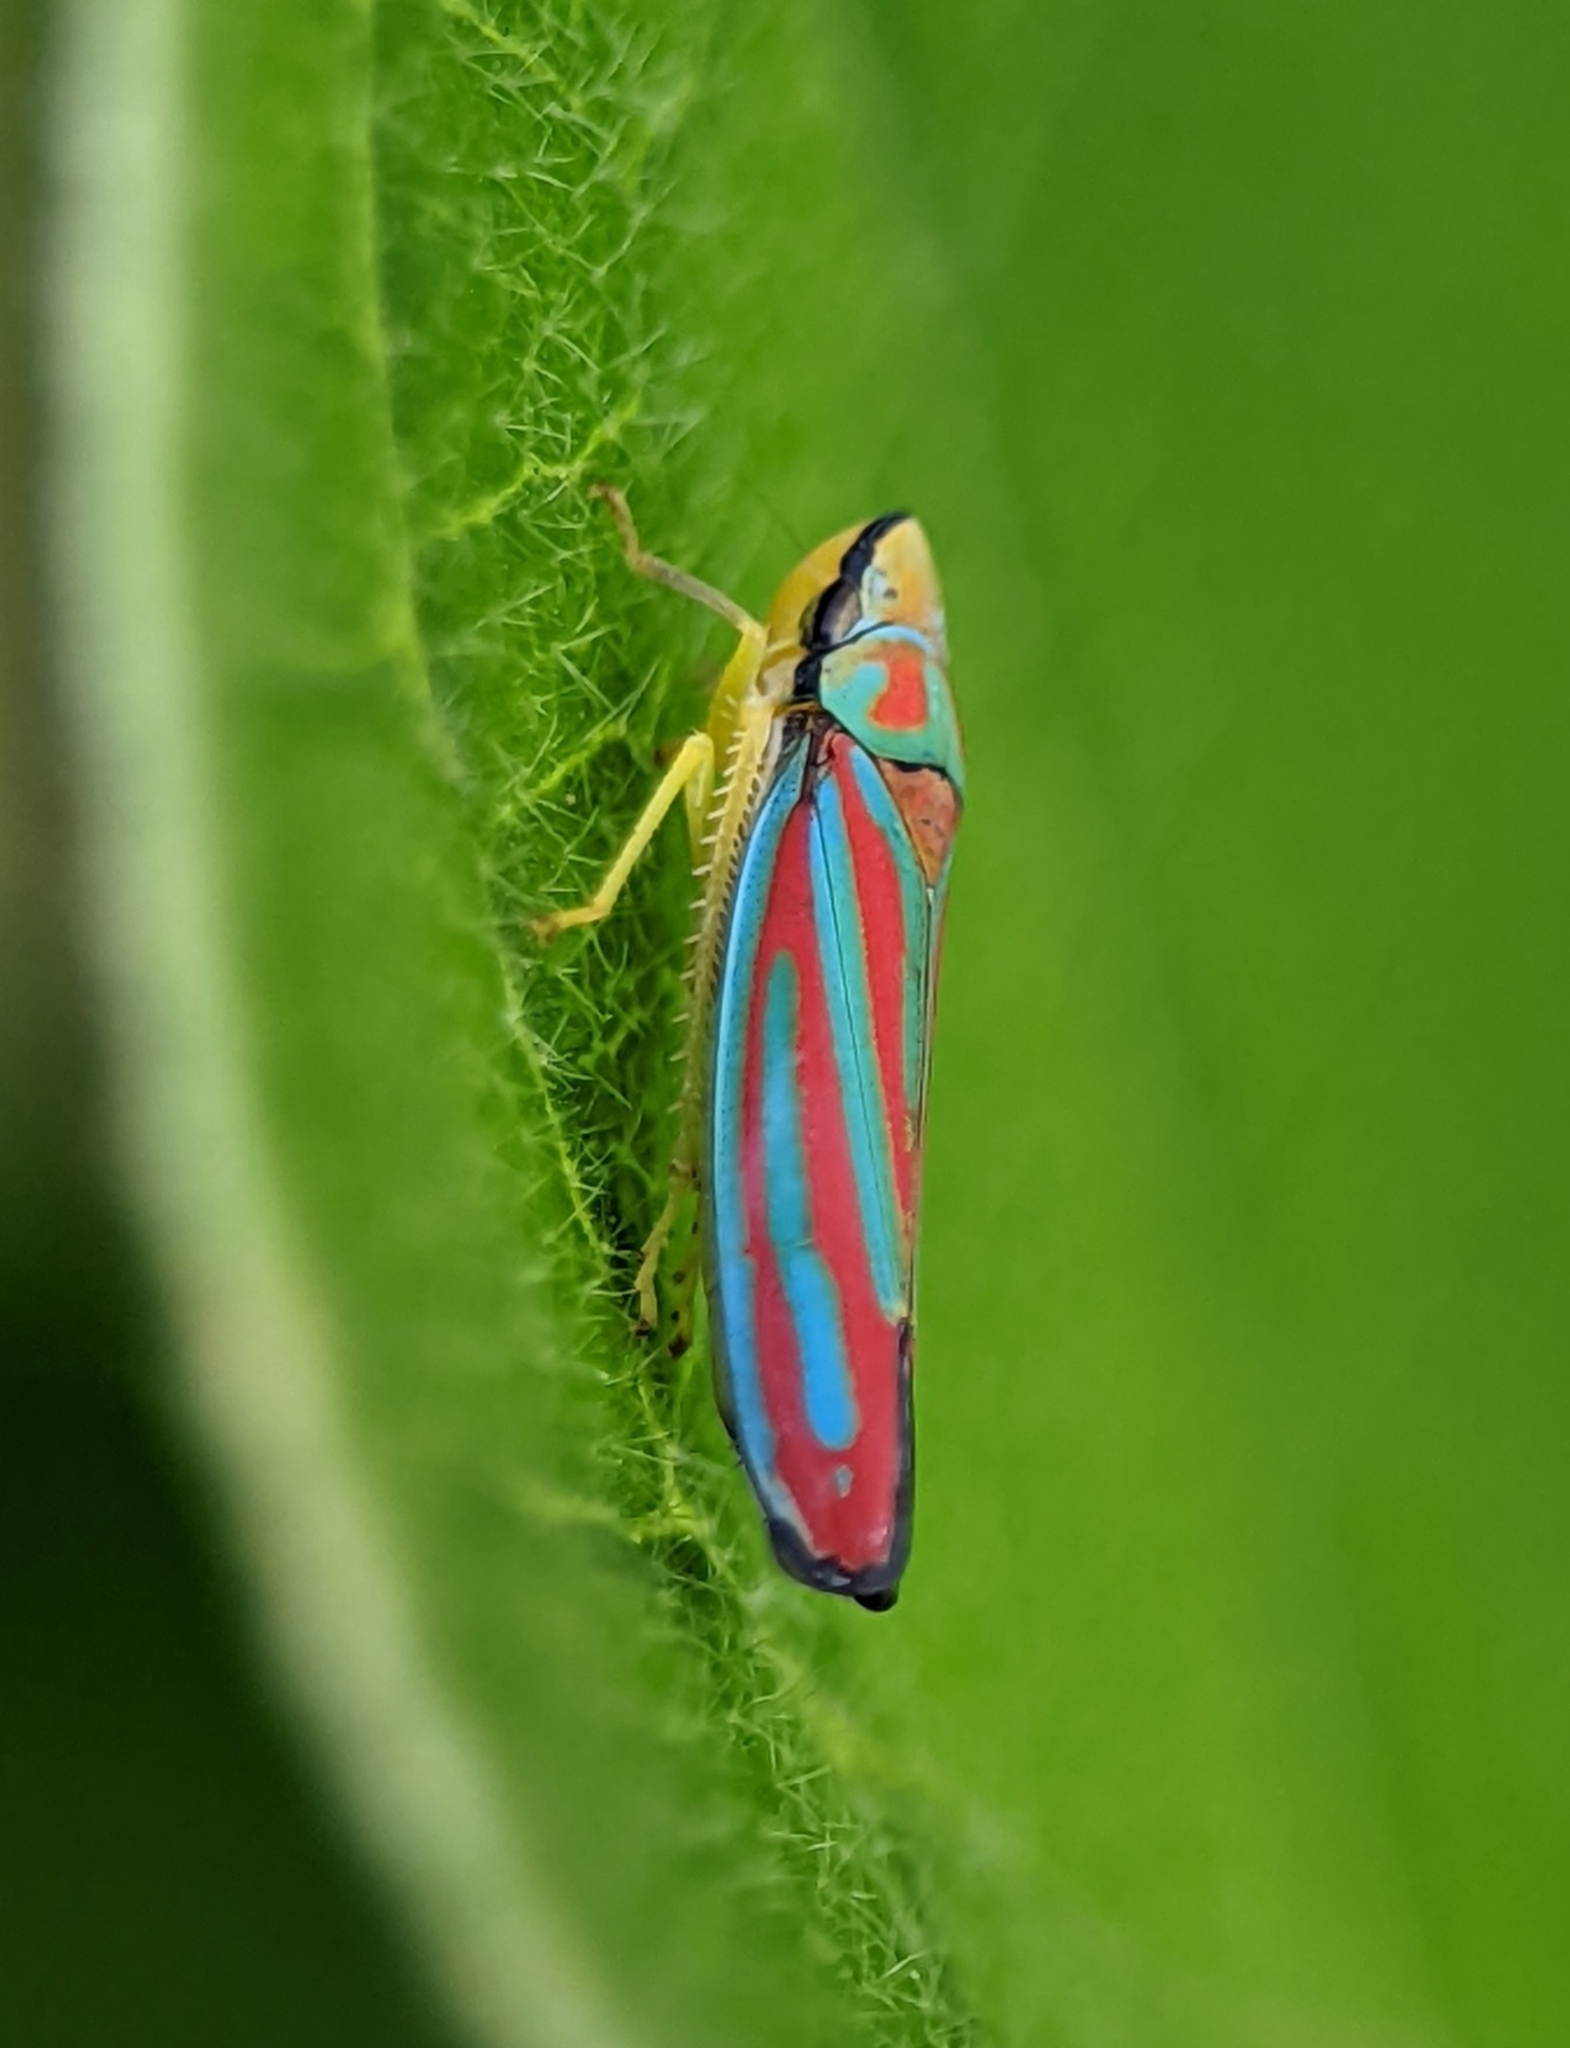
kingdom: Animalia
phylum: Arthropoda
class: Insecta
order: Hemiptera
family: Cicadellidae
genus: Graphocephala
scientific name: Graphocephala coccinea
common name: Candy-striped leafhopper
